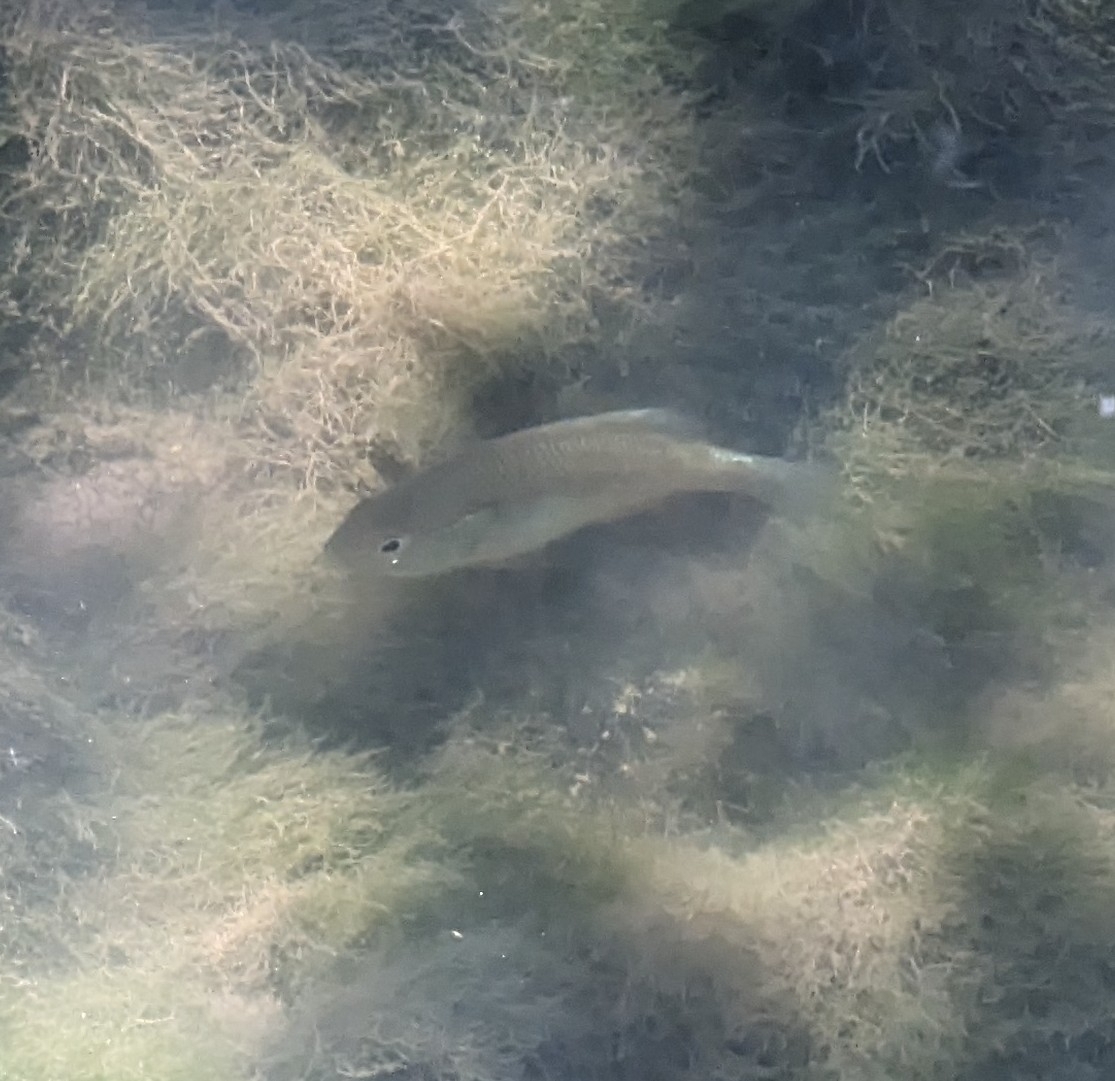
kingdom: Animalia
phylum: Chordata
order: Perciformes
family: Centrarchidae
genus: Lepomis
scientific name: Lepomis macrochirus
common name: Bluegill
